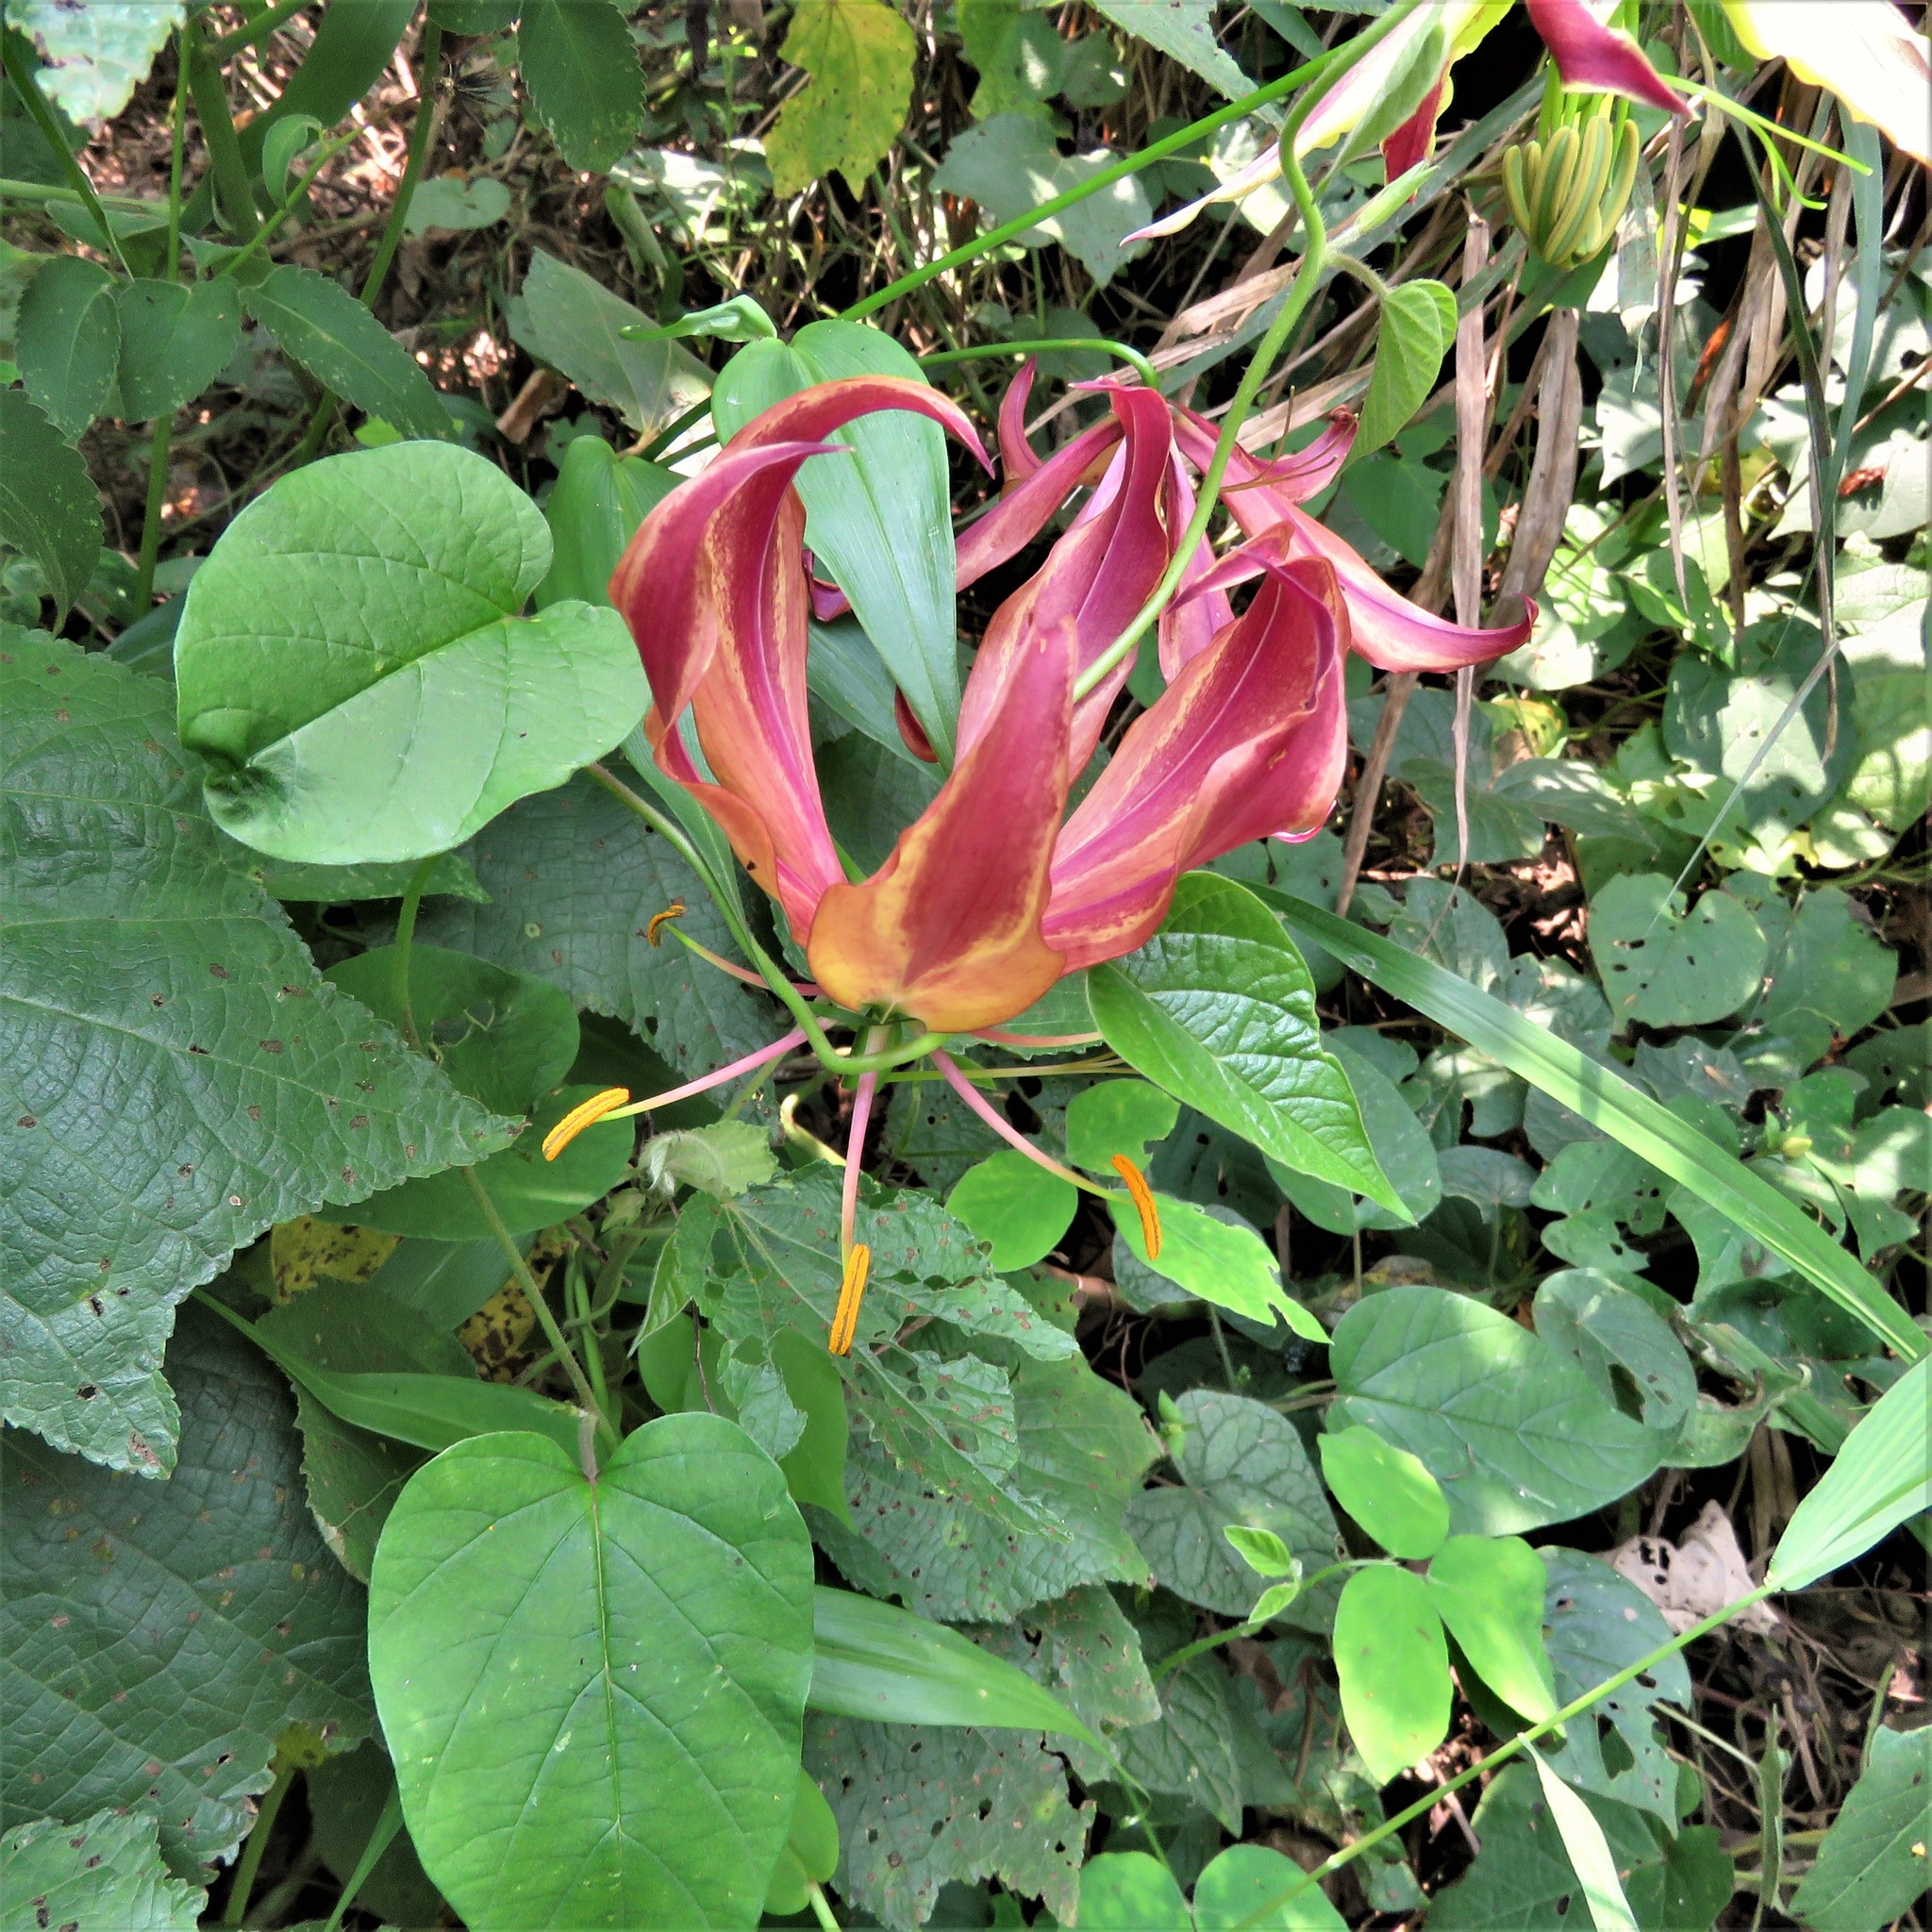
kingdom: Plantae
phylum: Tracheophyta
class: Liliopsida
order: Liliales
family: Colchicaceae
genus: Gloriosa
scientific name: Gloriosa superba
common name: Flame lily
